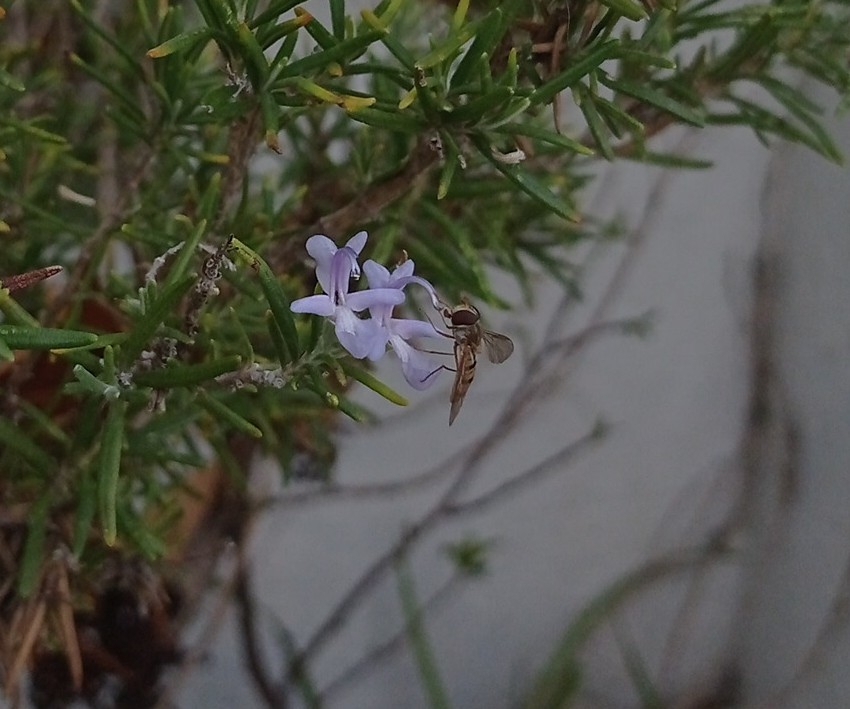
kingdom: Animalia
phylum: Arthropoda
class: Insecta
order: Diptera
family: Syrphidae
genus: Episyrphus
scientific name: Episyrphus balteatus
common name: Marmalade hoverfly
